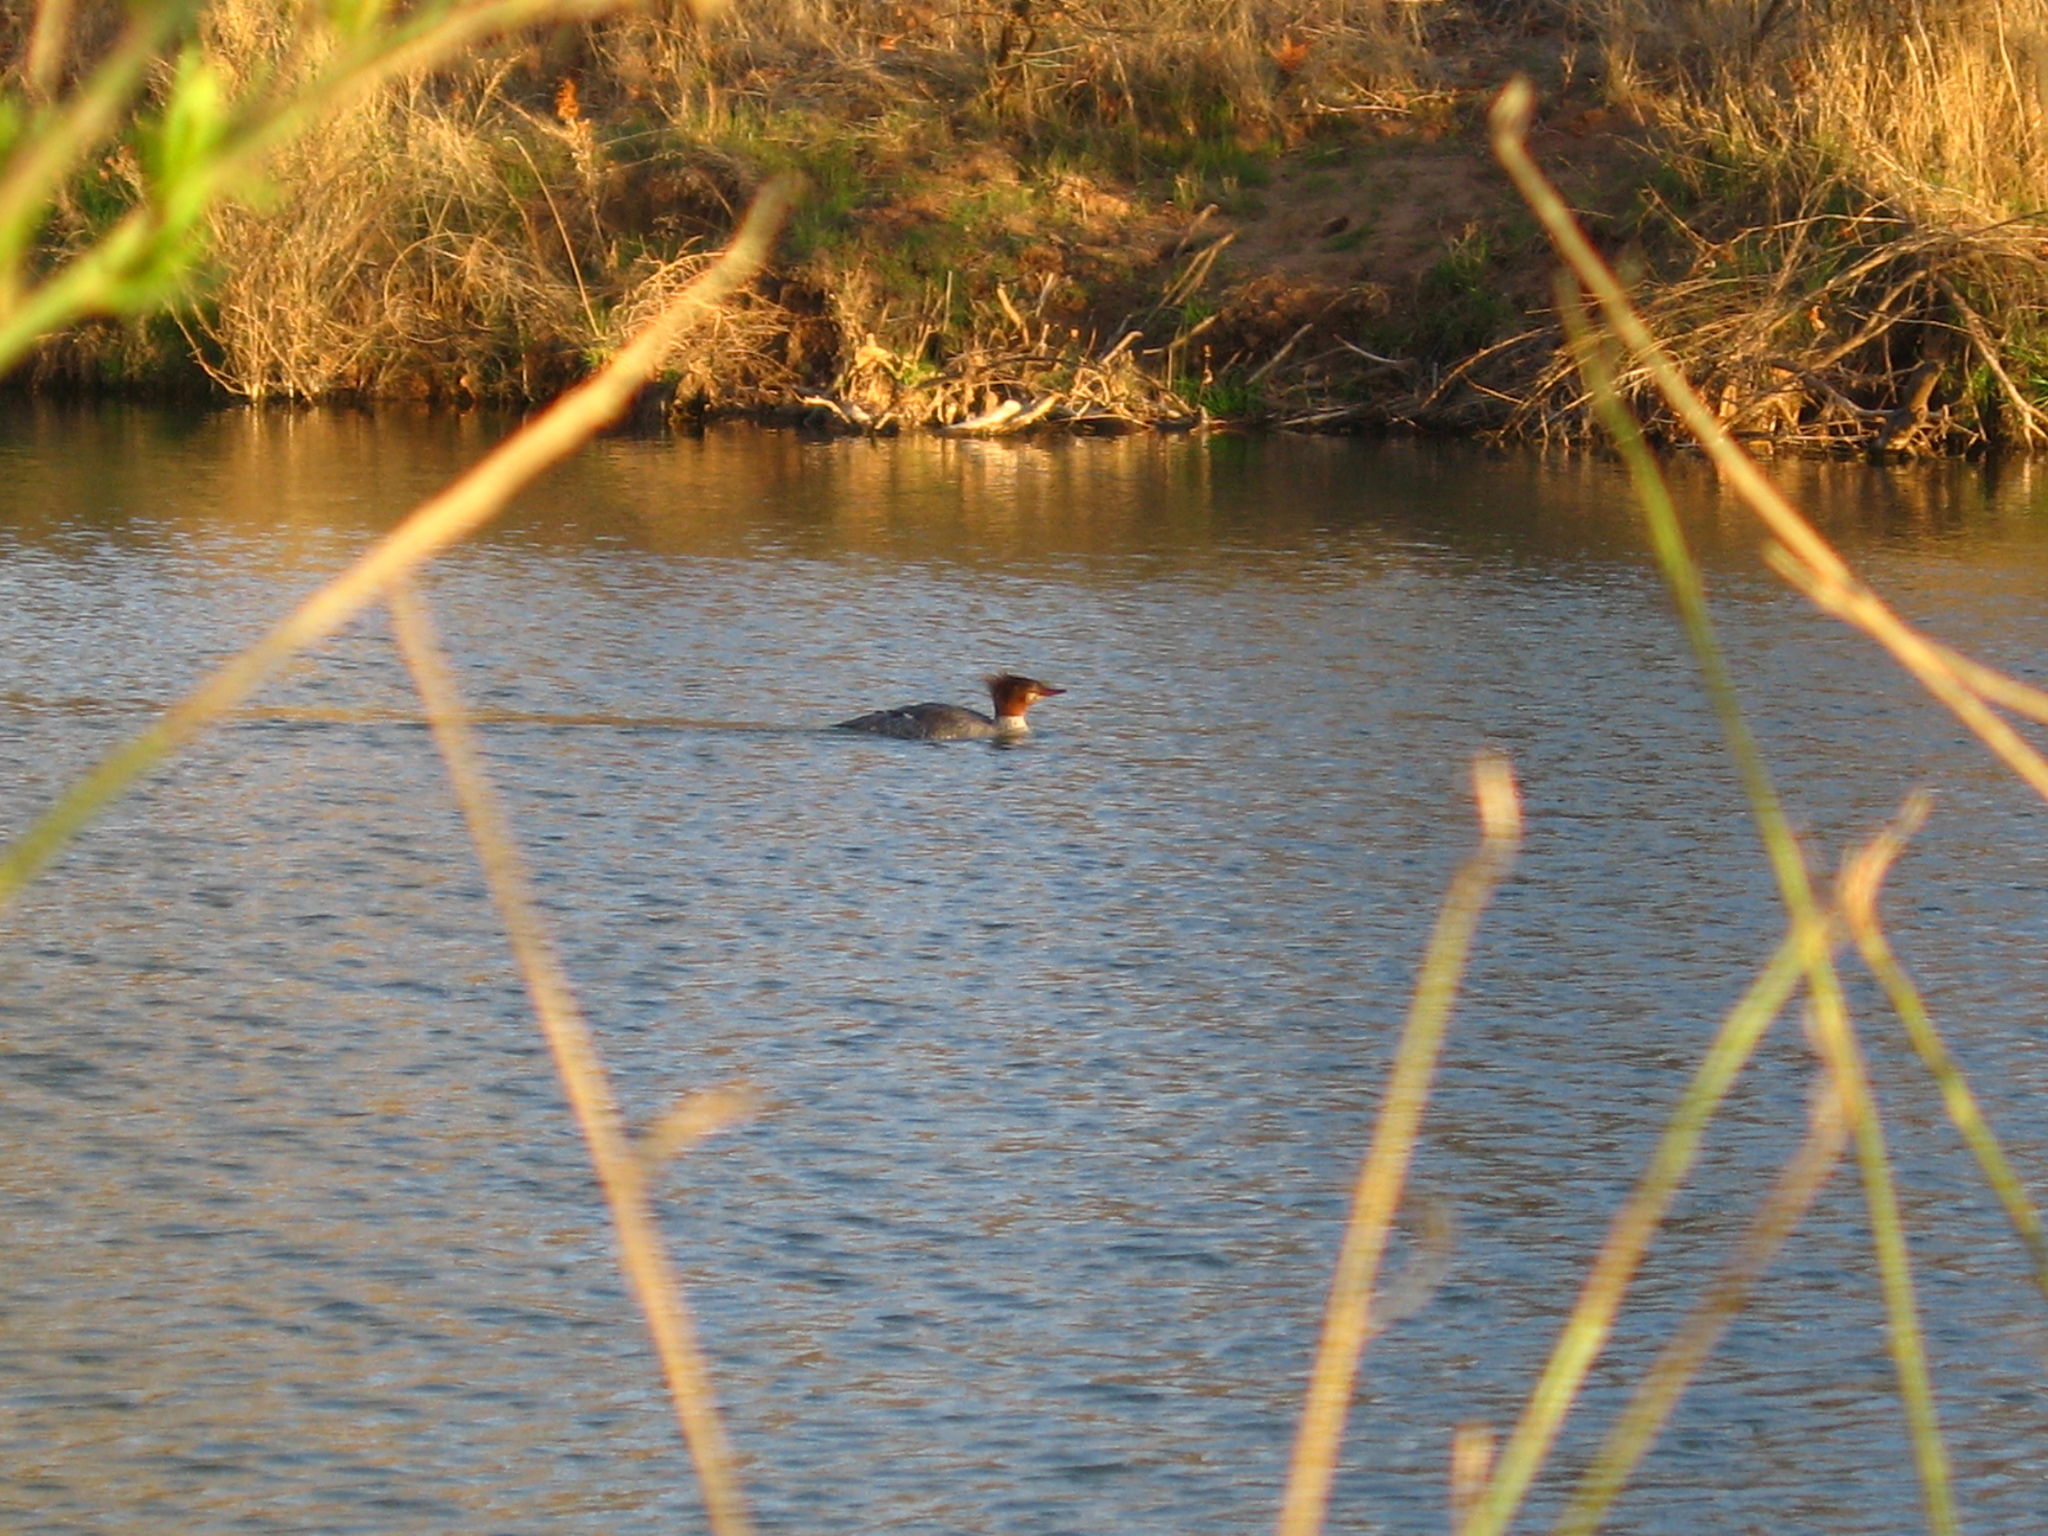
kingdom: Animalia
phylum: Chordata
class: Aves
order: Anseriformes
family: Anatidae
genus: Mergus
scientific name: Mergus merganser
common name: Common merganser
